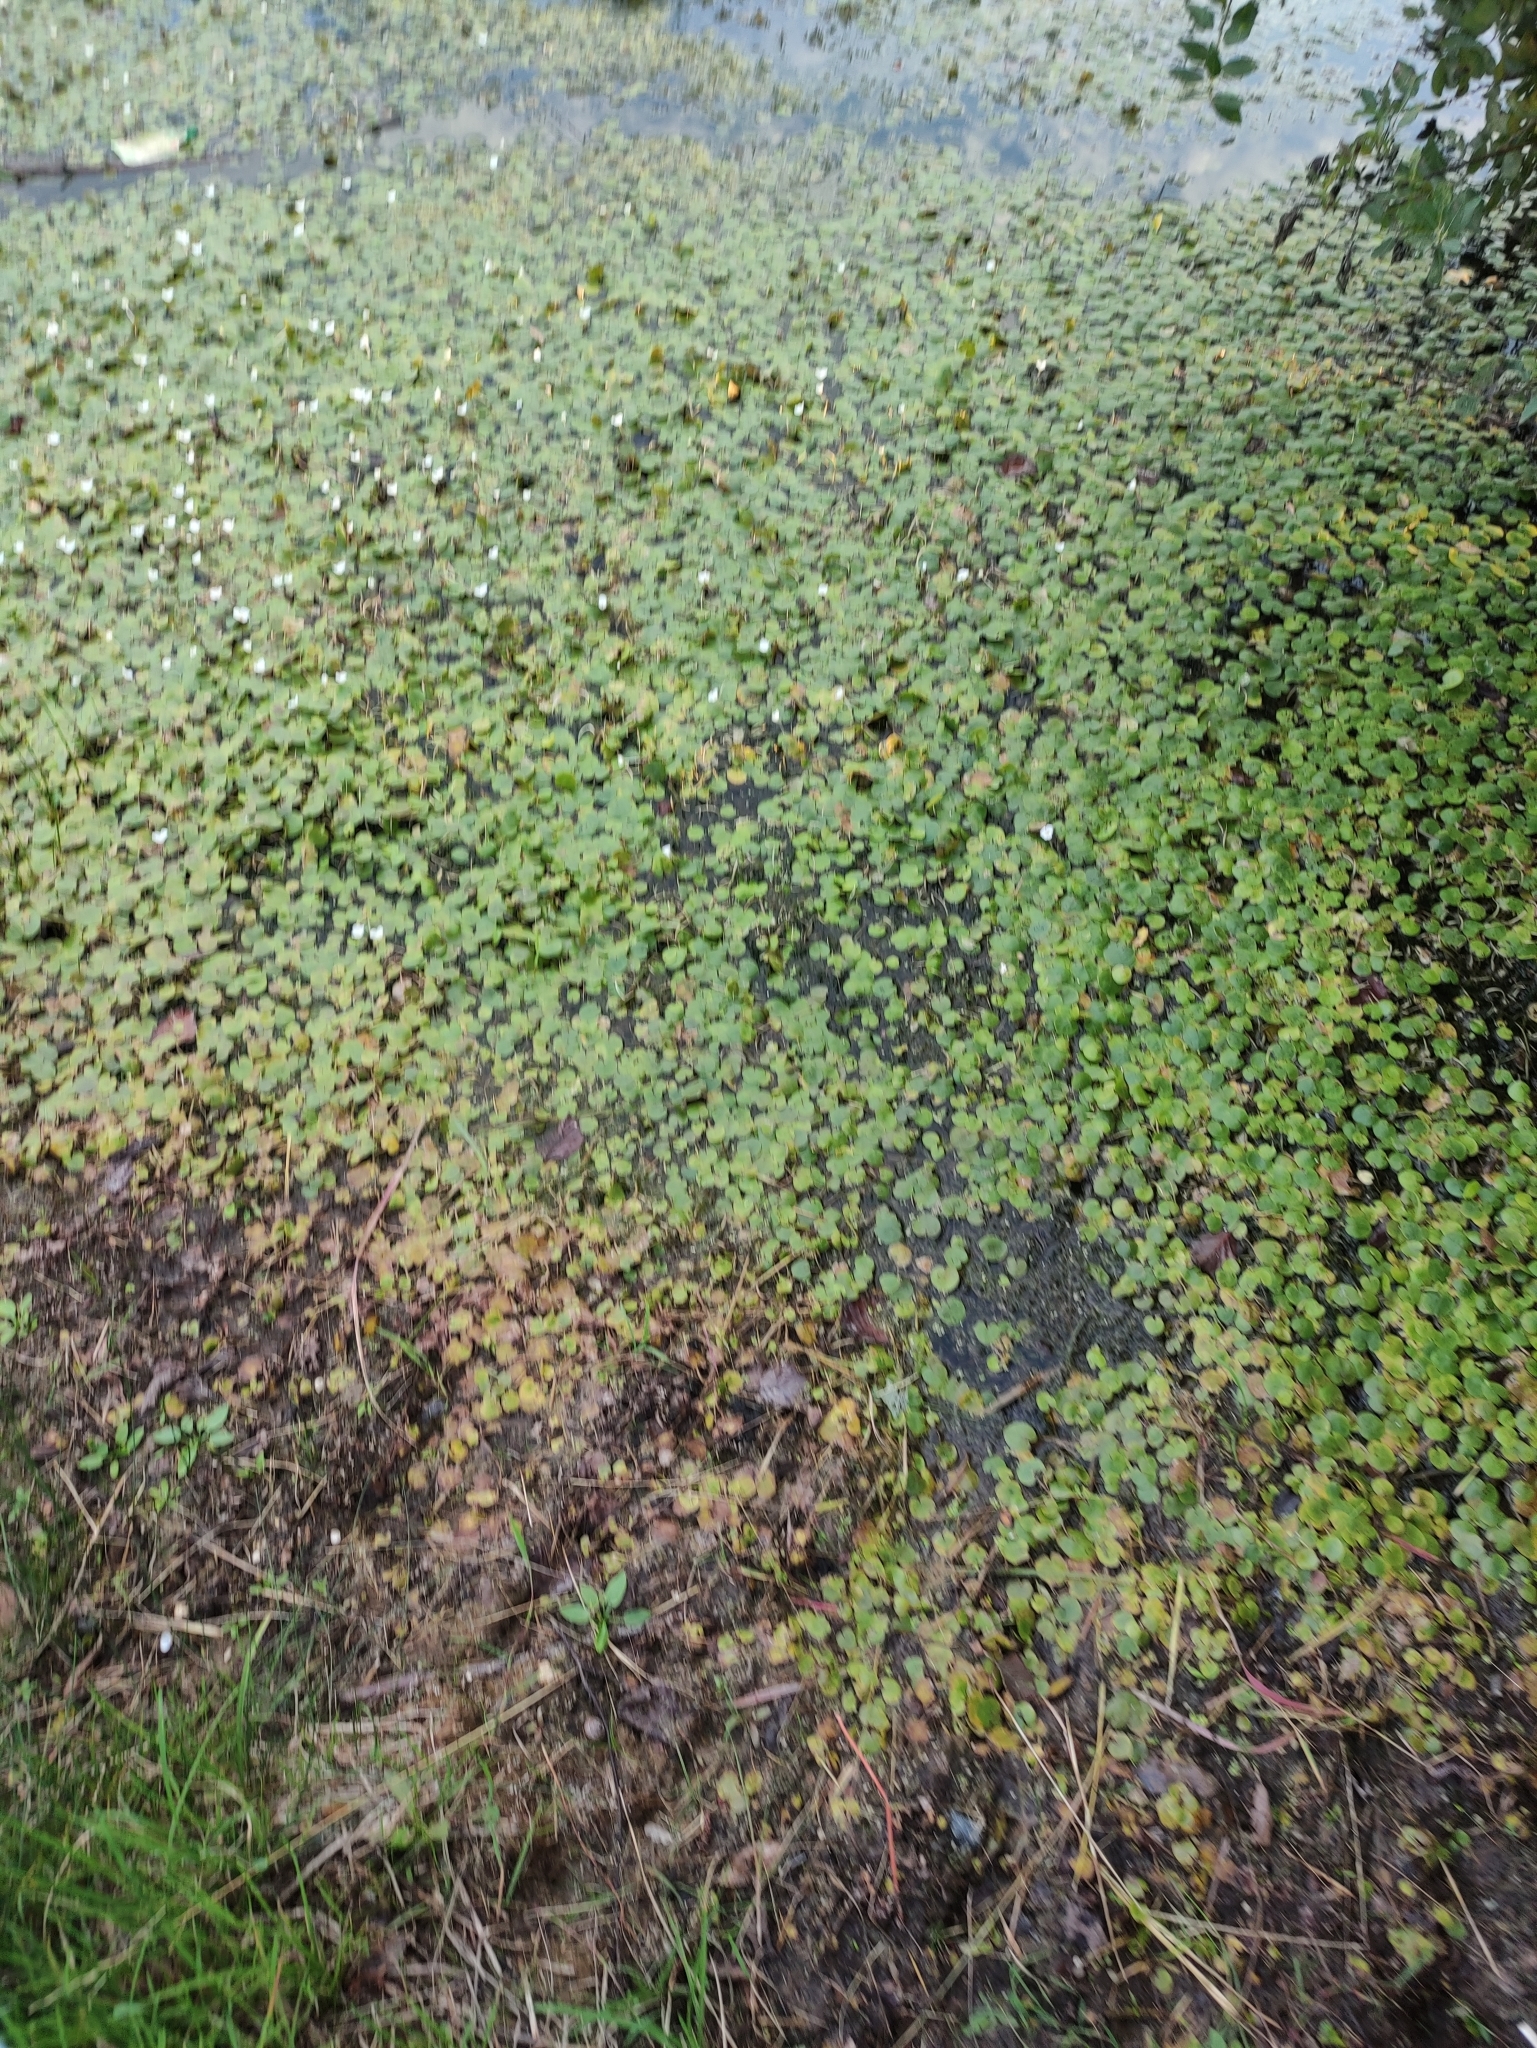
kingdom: Plantae
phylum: Tracheophyta
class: Liliopsida
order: Alismatales
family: Hydrocharitaceae
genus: Hydrocharis
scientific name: Hydrocharis morsus-ranae
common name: Frogbit
